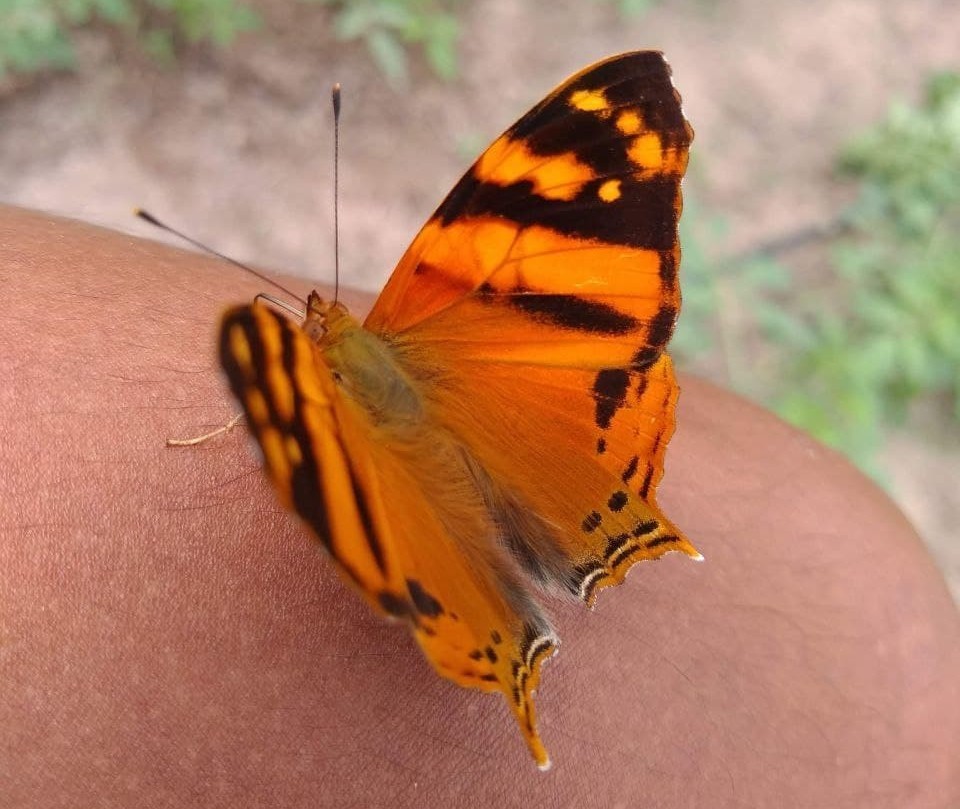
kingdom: Animalia
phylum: Arthropoda
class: Insecta
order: Lepidoptera
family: Nymphalidae
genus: Hypanartia
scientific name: Hypanartia lethe
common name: Orange mapwing
